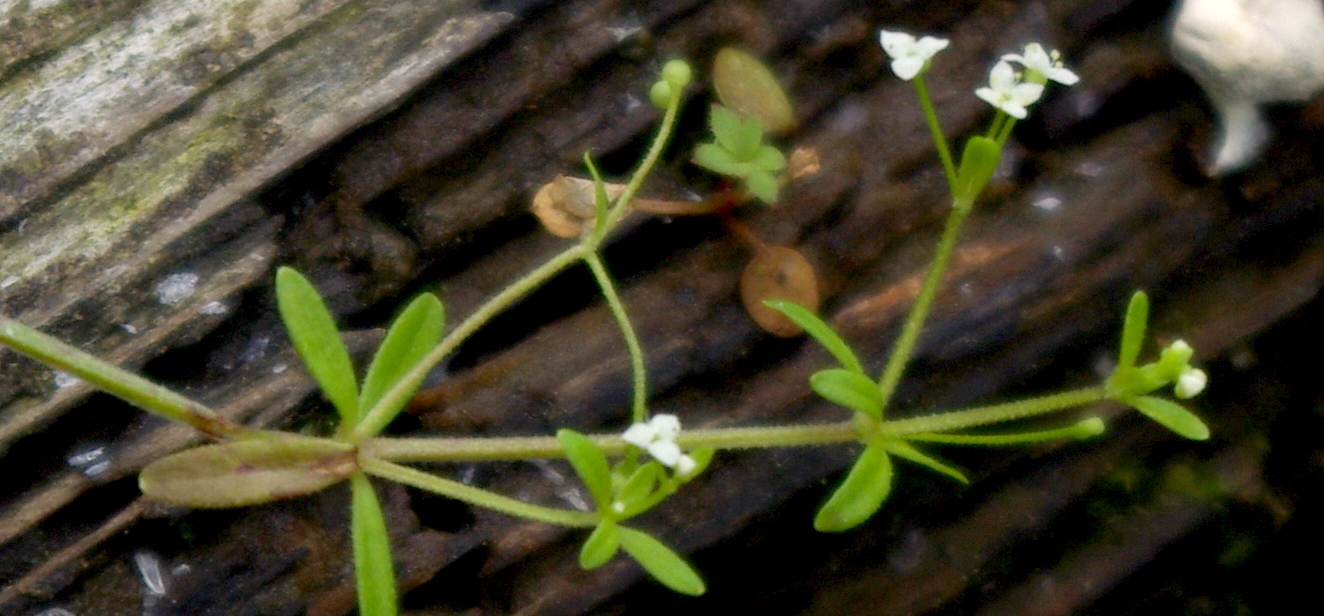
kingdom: Plantae
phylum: Tracheophyta
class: Magnoliopsida
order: Gentianales
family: Rubiaceae
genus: Galium
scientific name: Galium trifidum
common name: Small bedstraw
